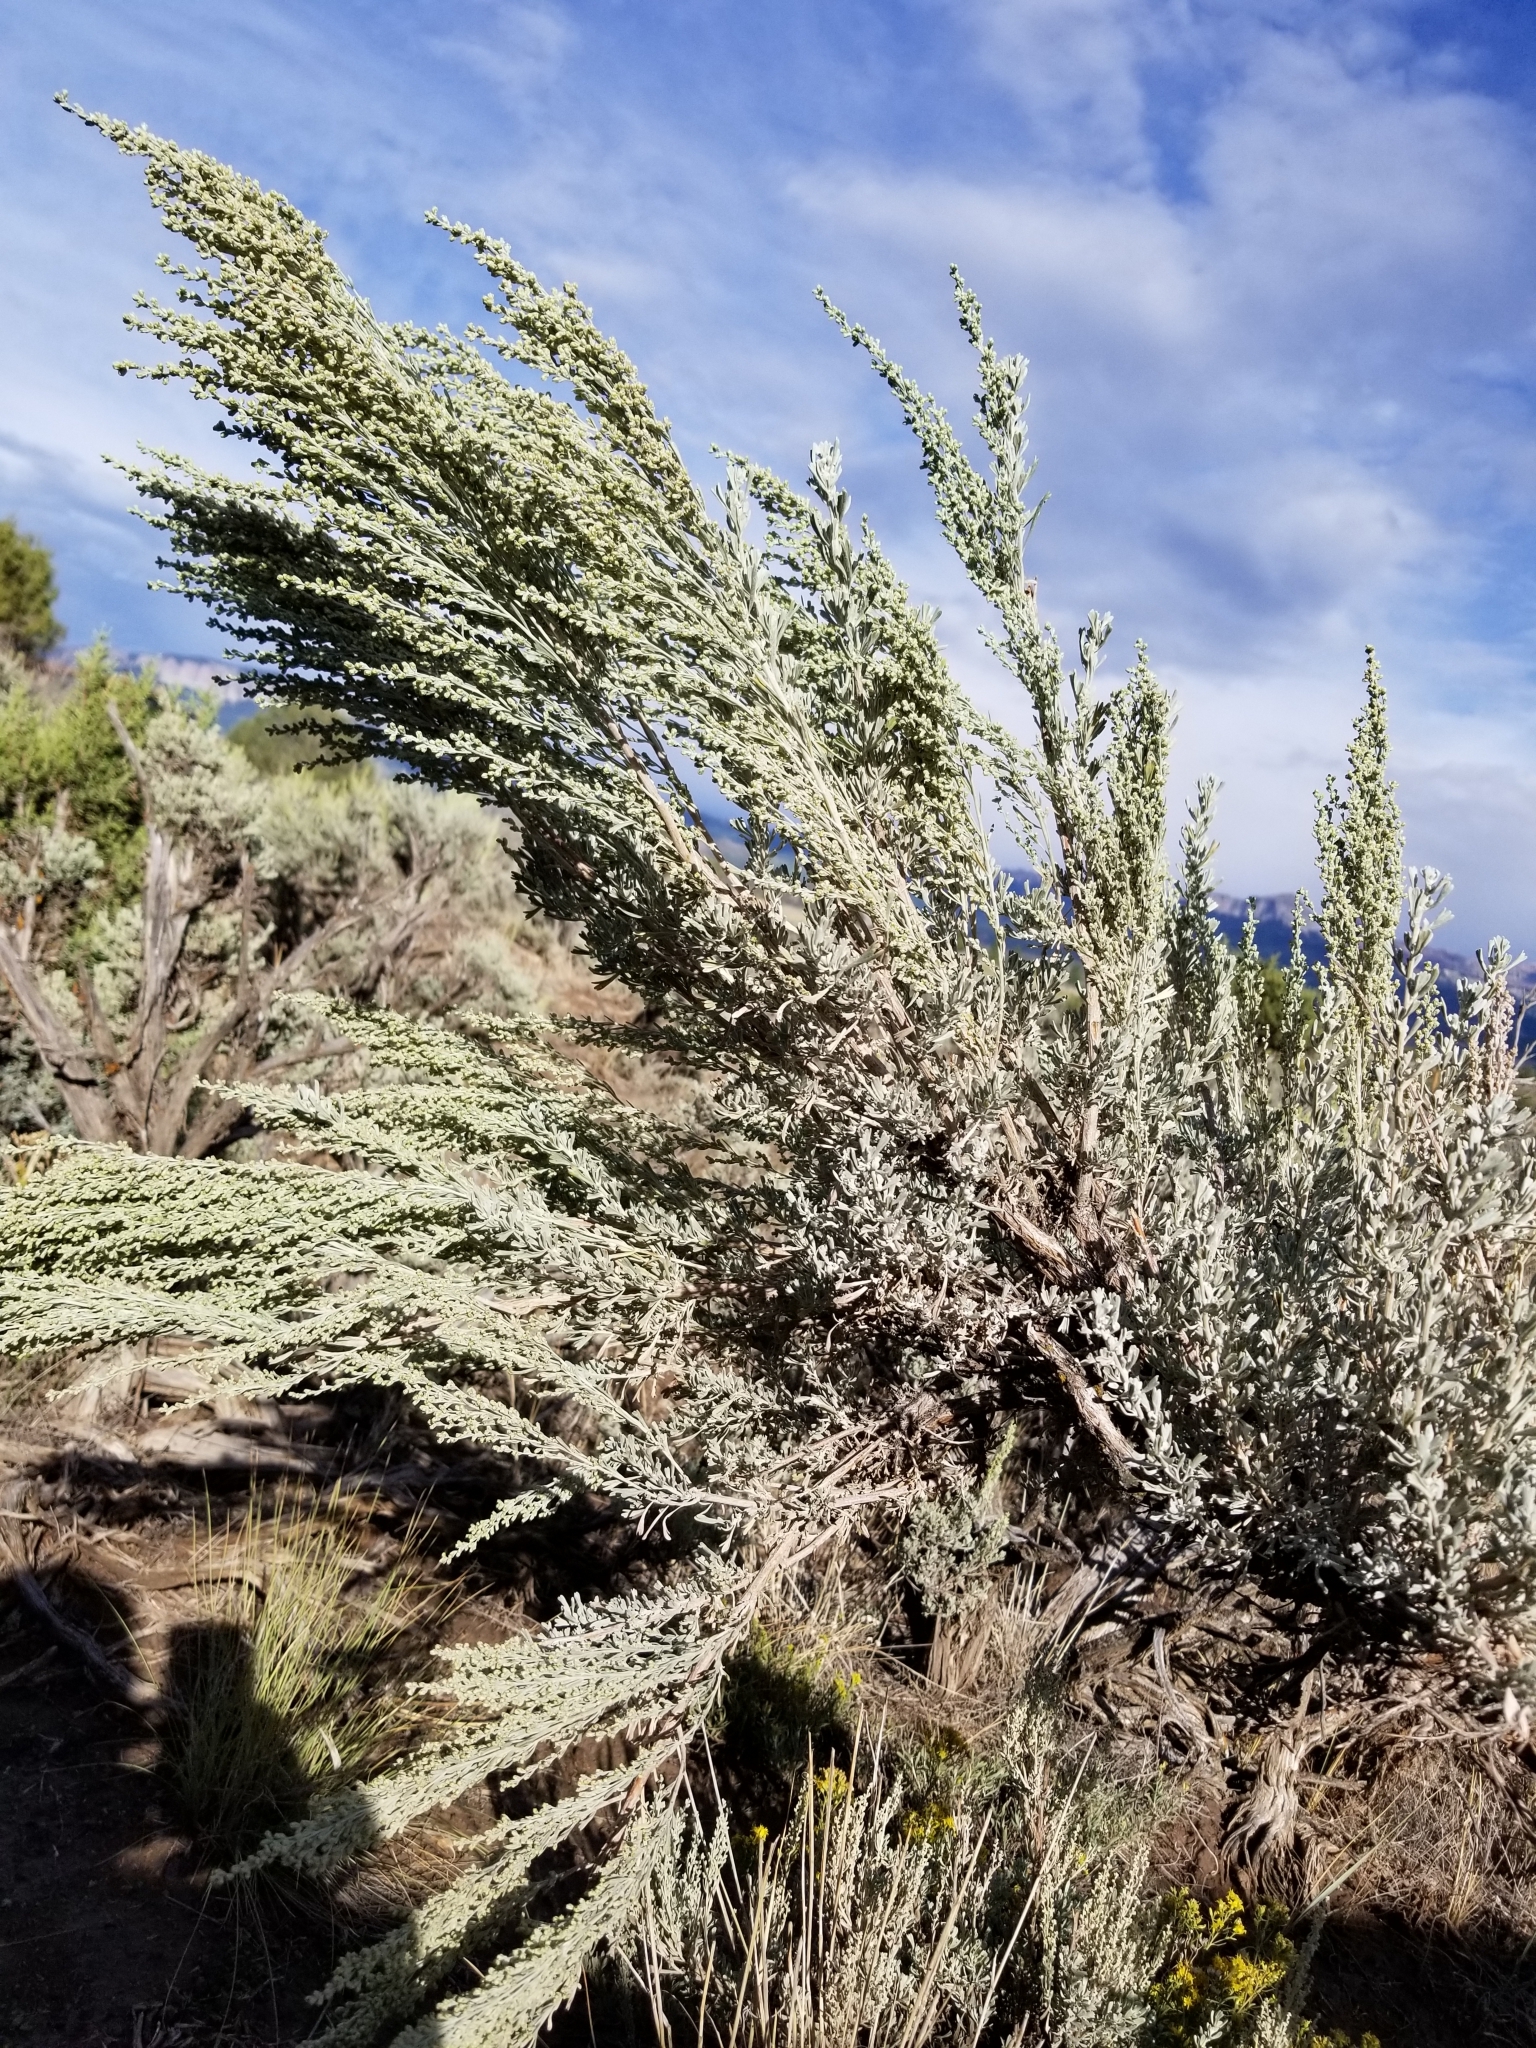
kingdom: Plantae
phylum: Tracheophyta
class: Magnoliopsida
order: Asterales
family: Asteraceae
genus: Artemisia
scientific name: Artemisia tridentata
